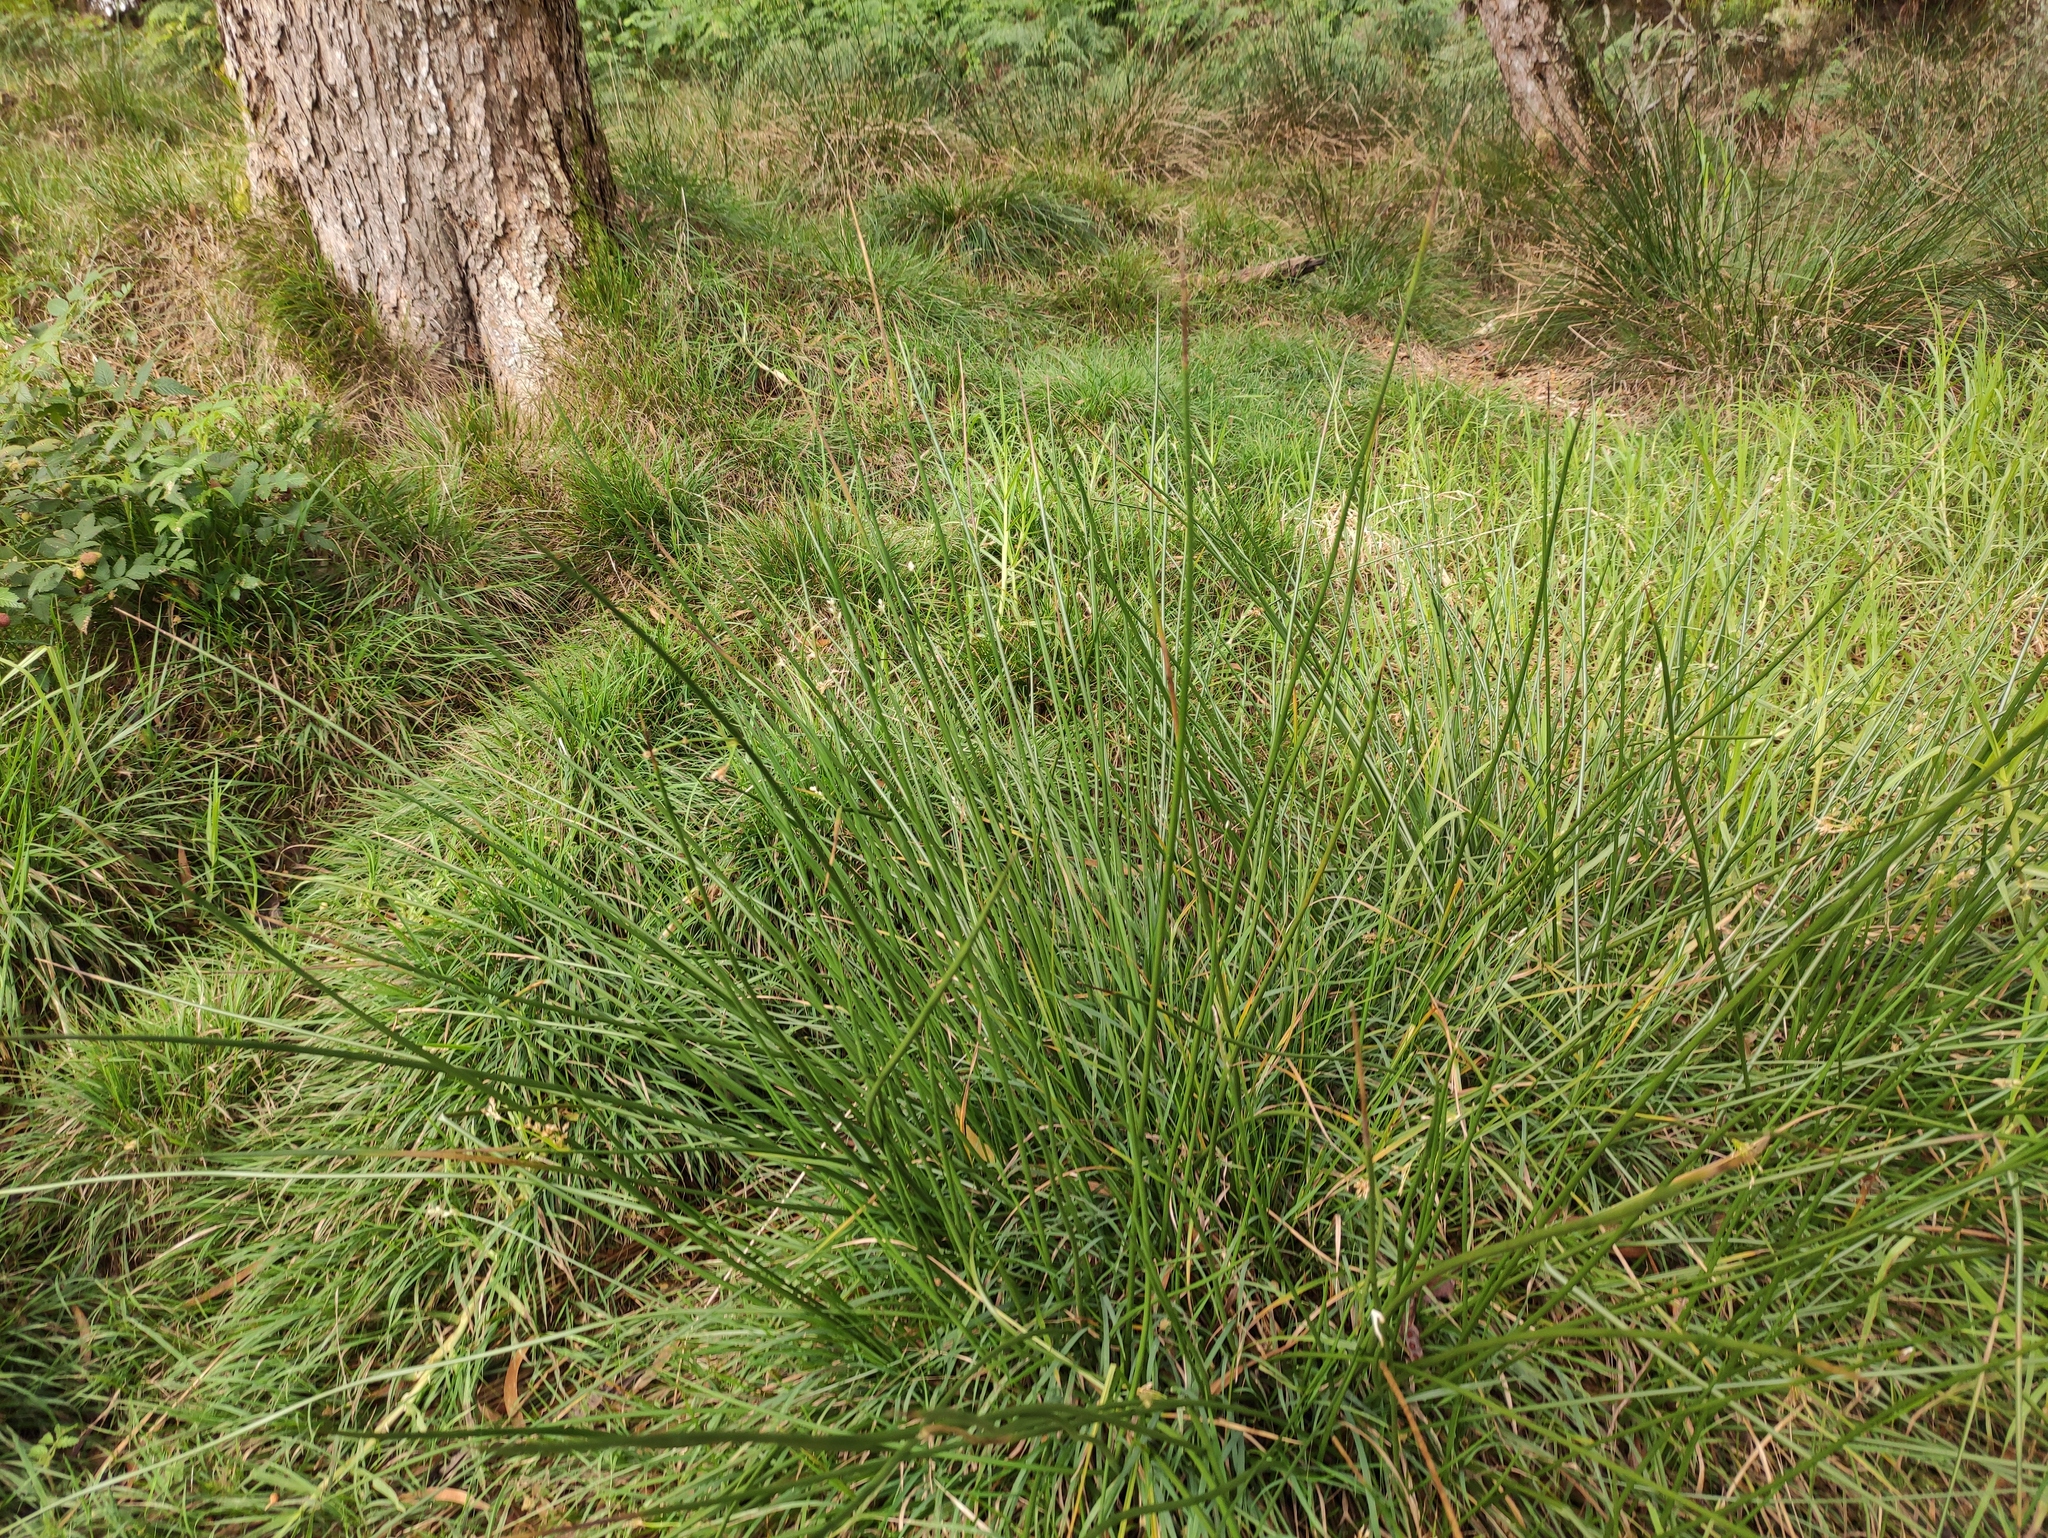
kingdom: Plantae
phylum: Tracheophyta
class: Liliopsida
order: Poales
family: Juncaceae
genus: Juncus
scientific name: Juncus effusus
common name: Soft rush
